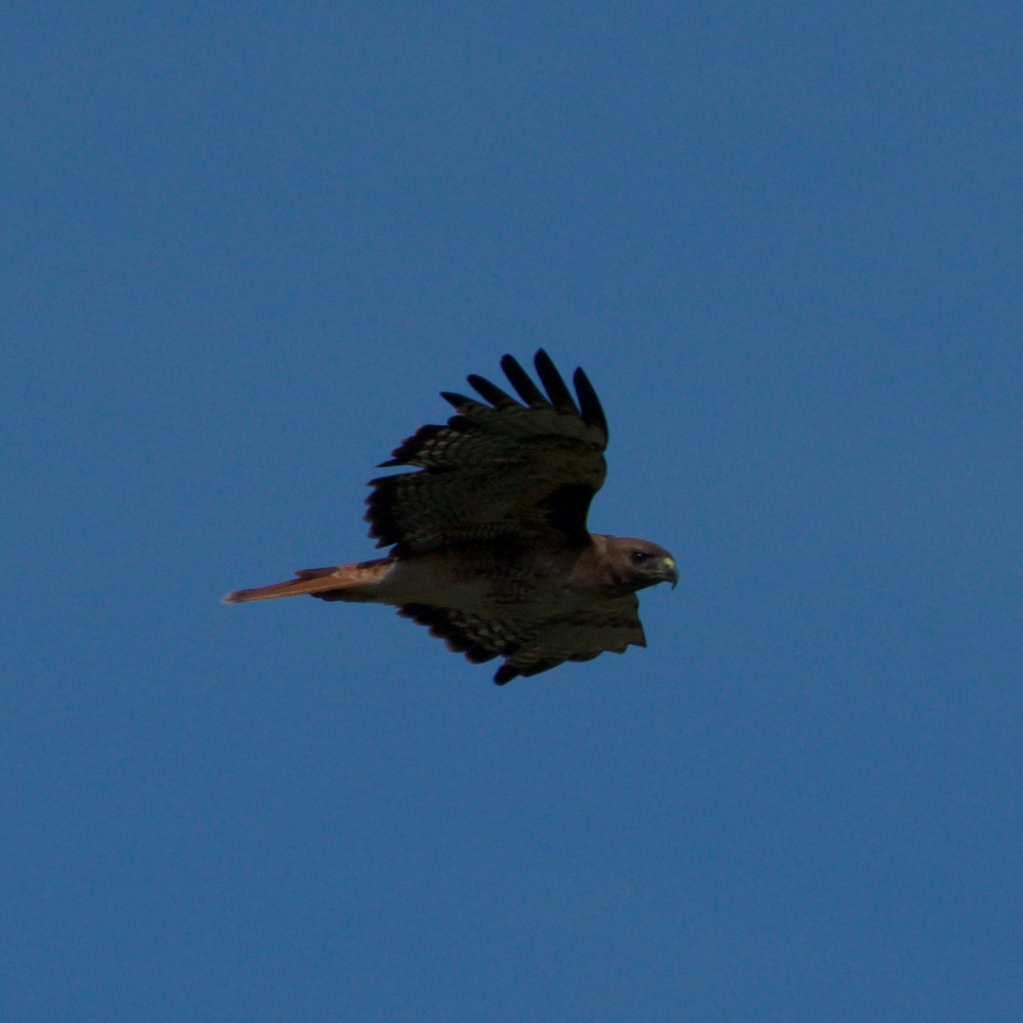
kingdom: Animalia
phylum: Chordata
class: Aves
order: Accipitriformes
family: Accipitridae
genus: Buteo
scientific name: Buteo jamaicensis
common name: Red-tailed hawk
